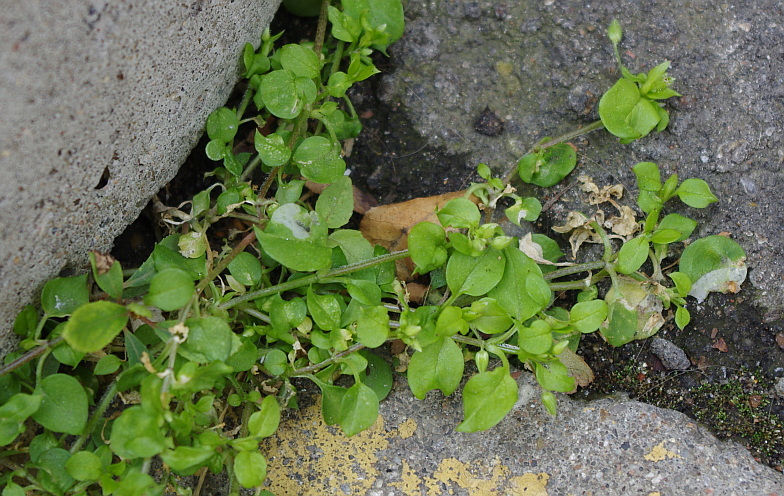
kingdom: Plantae
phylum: Tracheophyta
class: Magnoliopsida
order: Caryophyllales
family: Caryophyllaceae
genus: Stellaria
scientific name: Stellaria media
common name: Common chickweed
